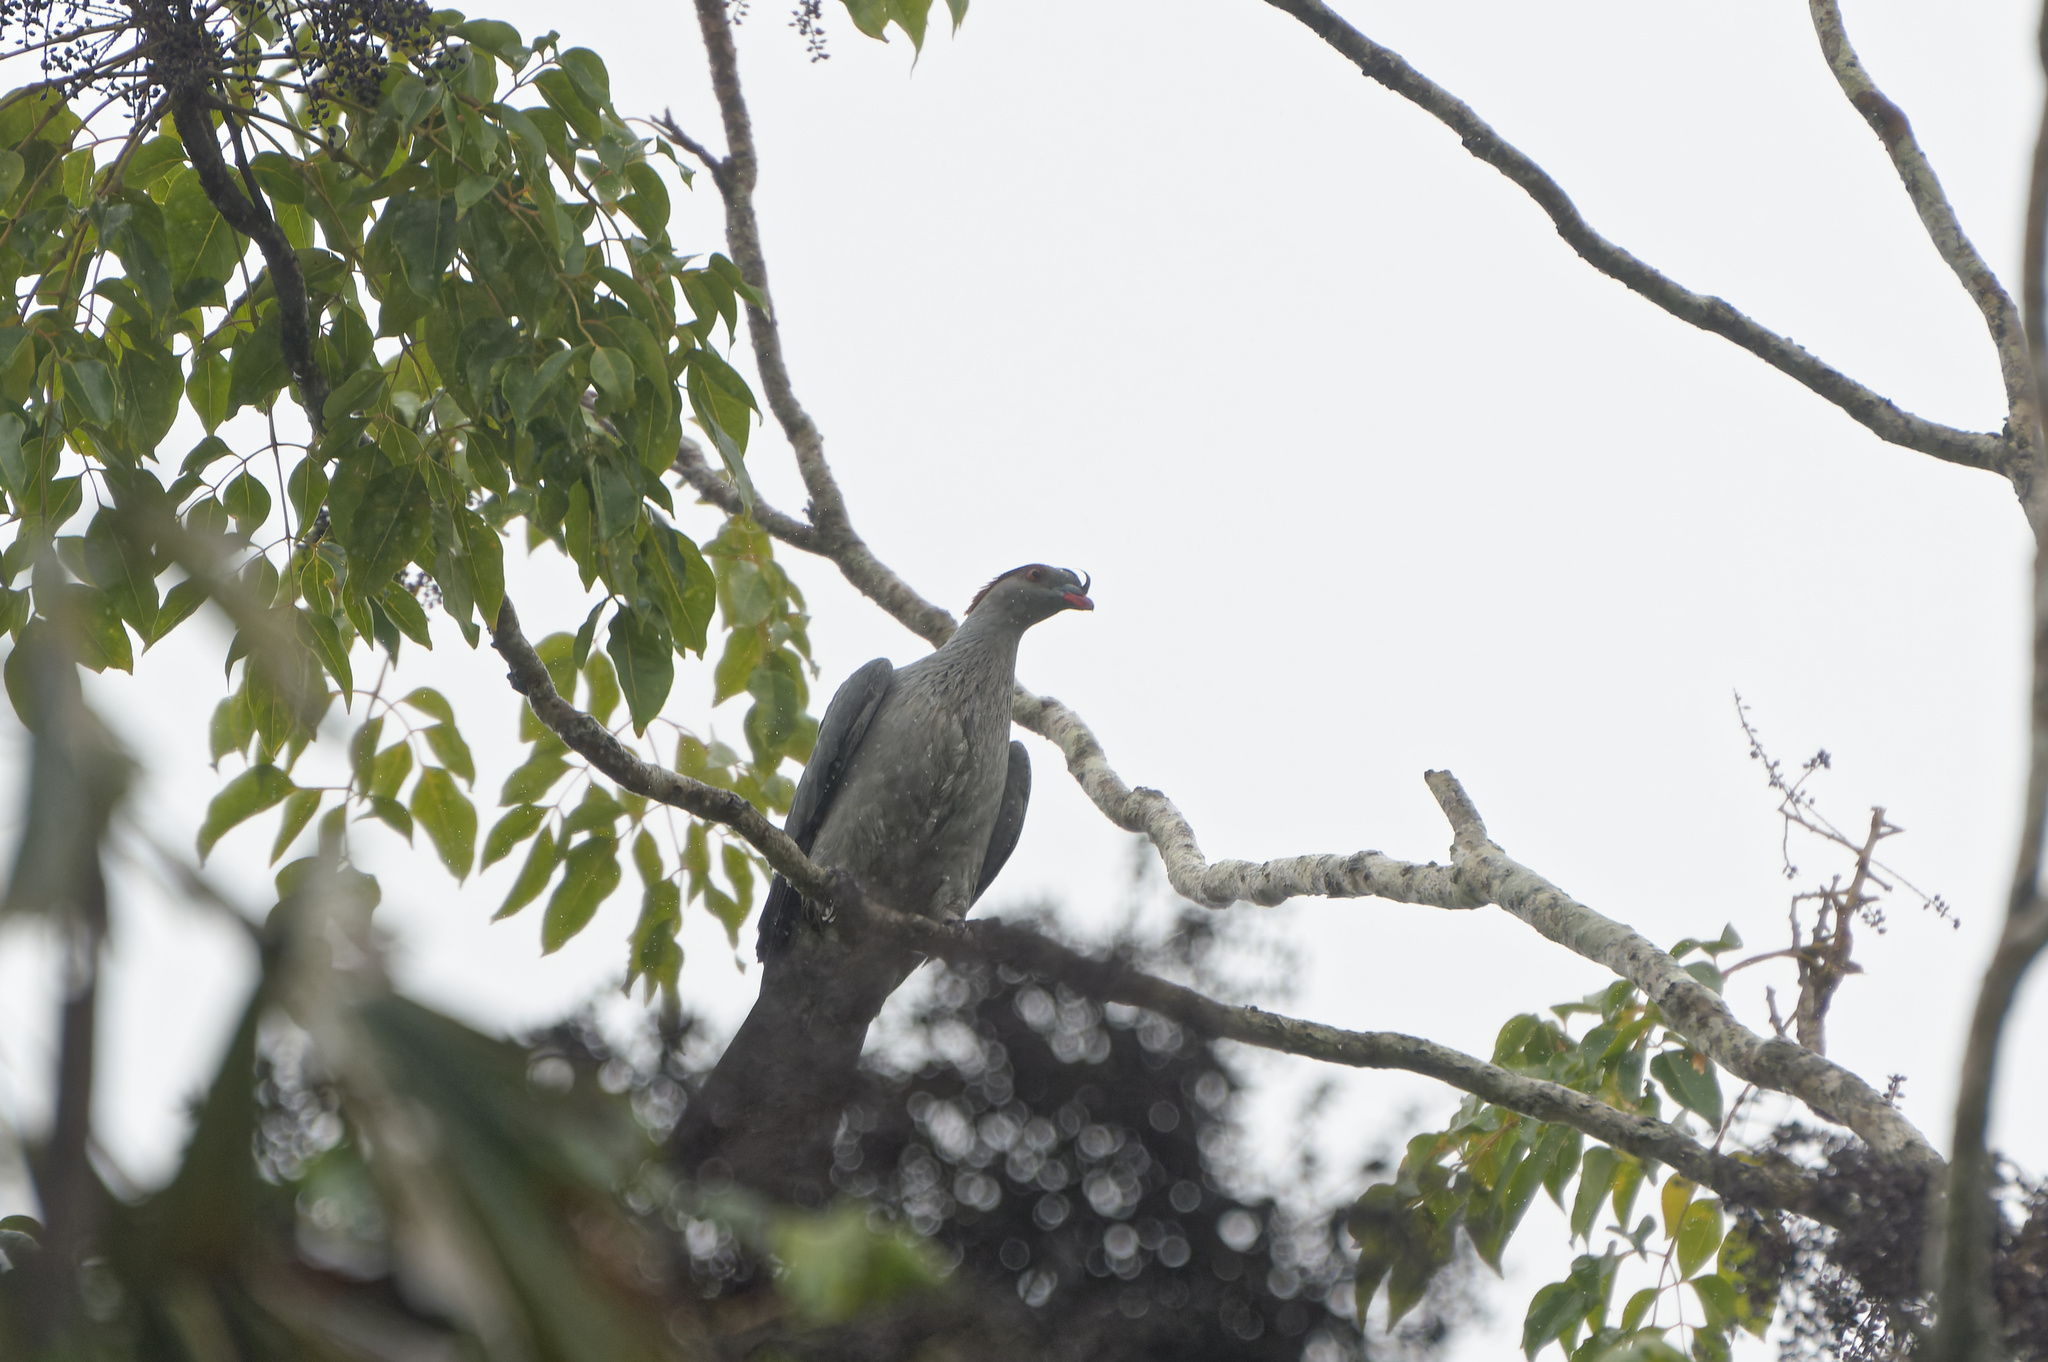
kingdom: Animalia
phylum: Chordata
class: Aves
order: Columbiformes
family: Columbidae
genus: Lopholaimus
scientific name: Lopholaimus antarcticus
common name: Topknot pigeon
